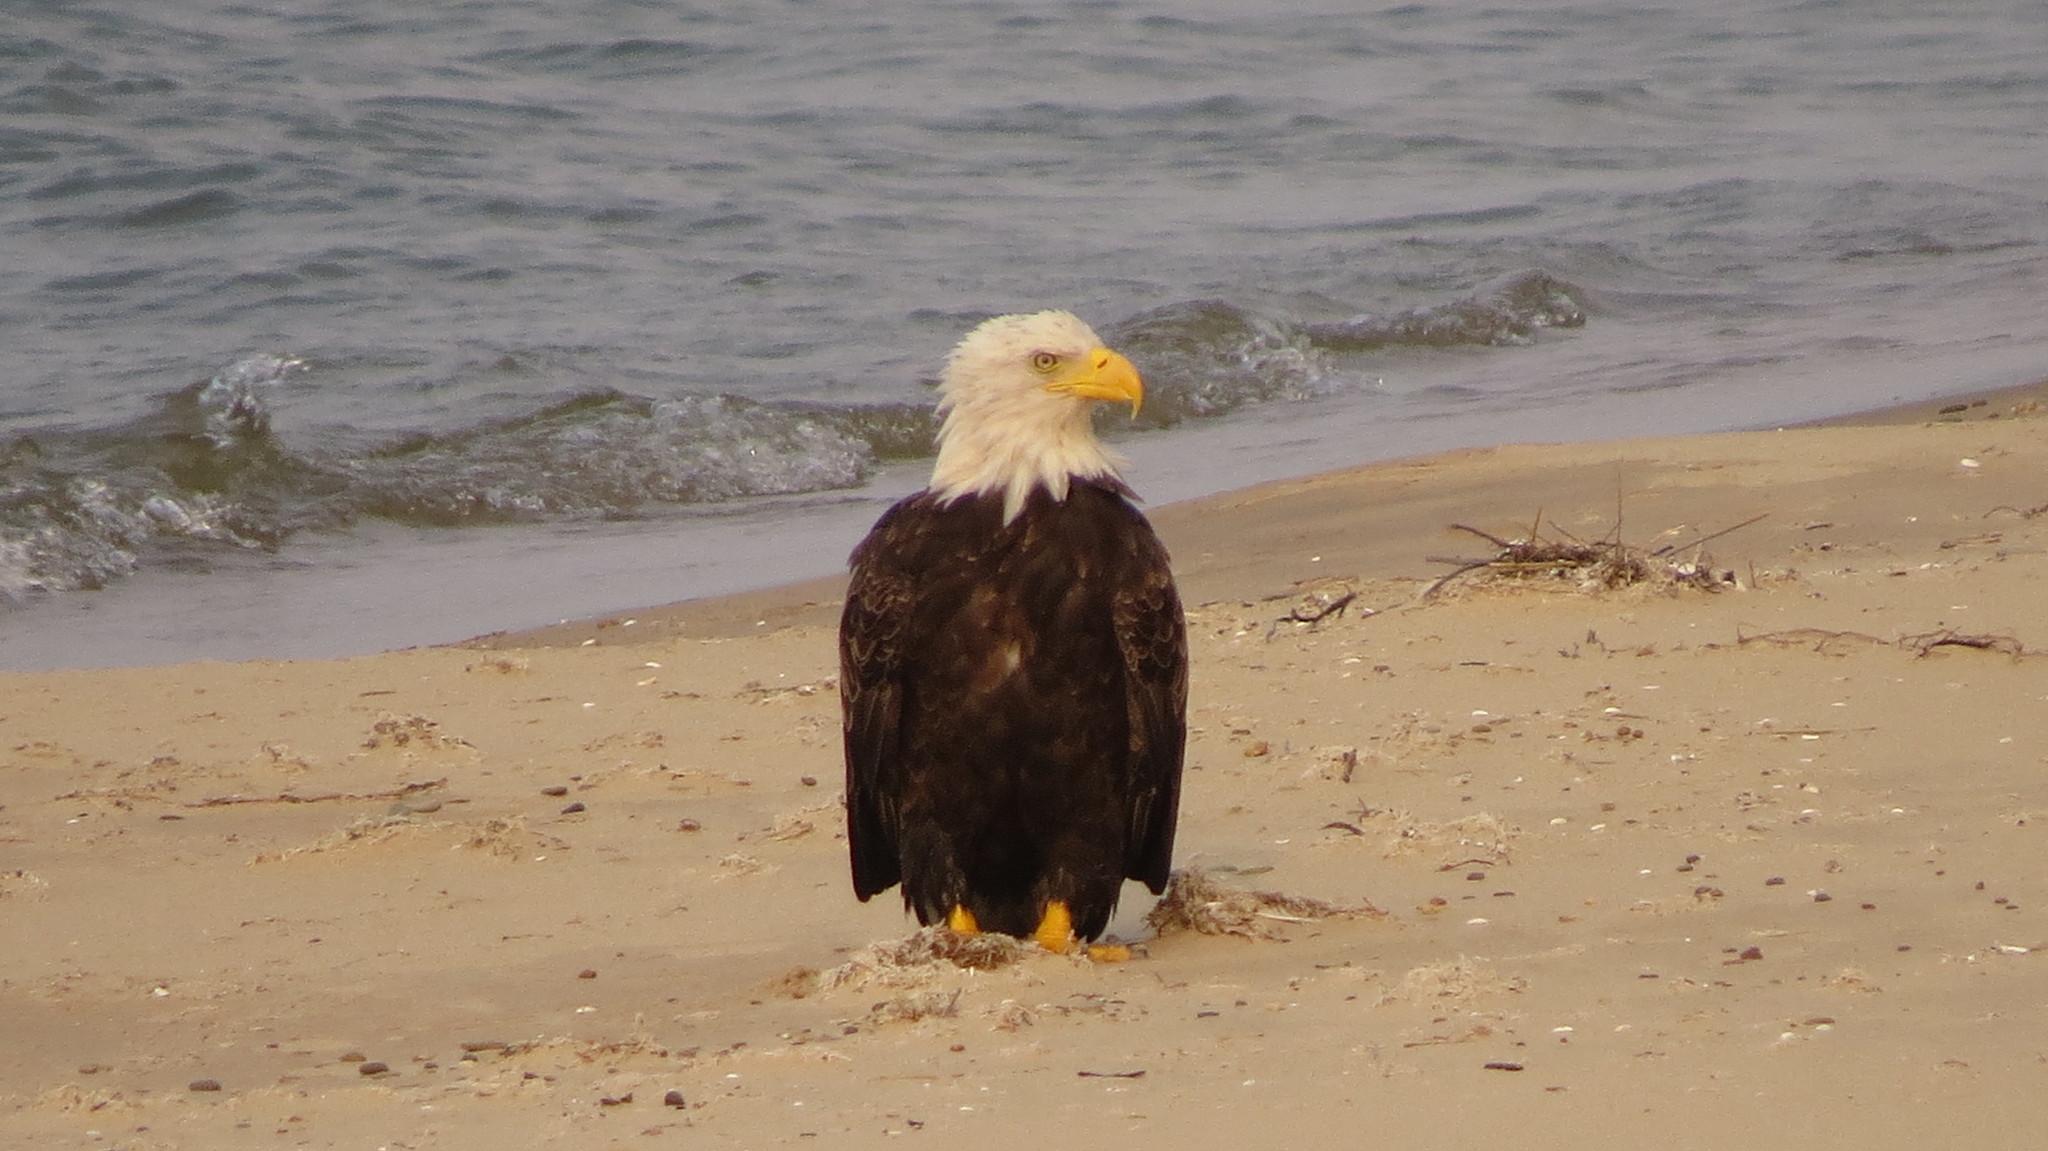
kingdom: Animalia
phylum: Chordata
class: Aves
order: Accipitriformes
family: Accipitridae
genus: Haliaeetus
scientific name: Haliaeetus leucocephalus
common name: Bald eagle
